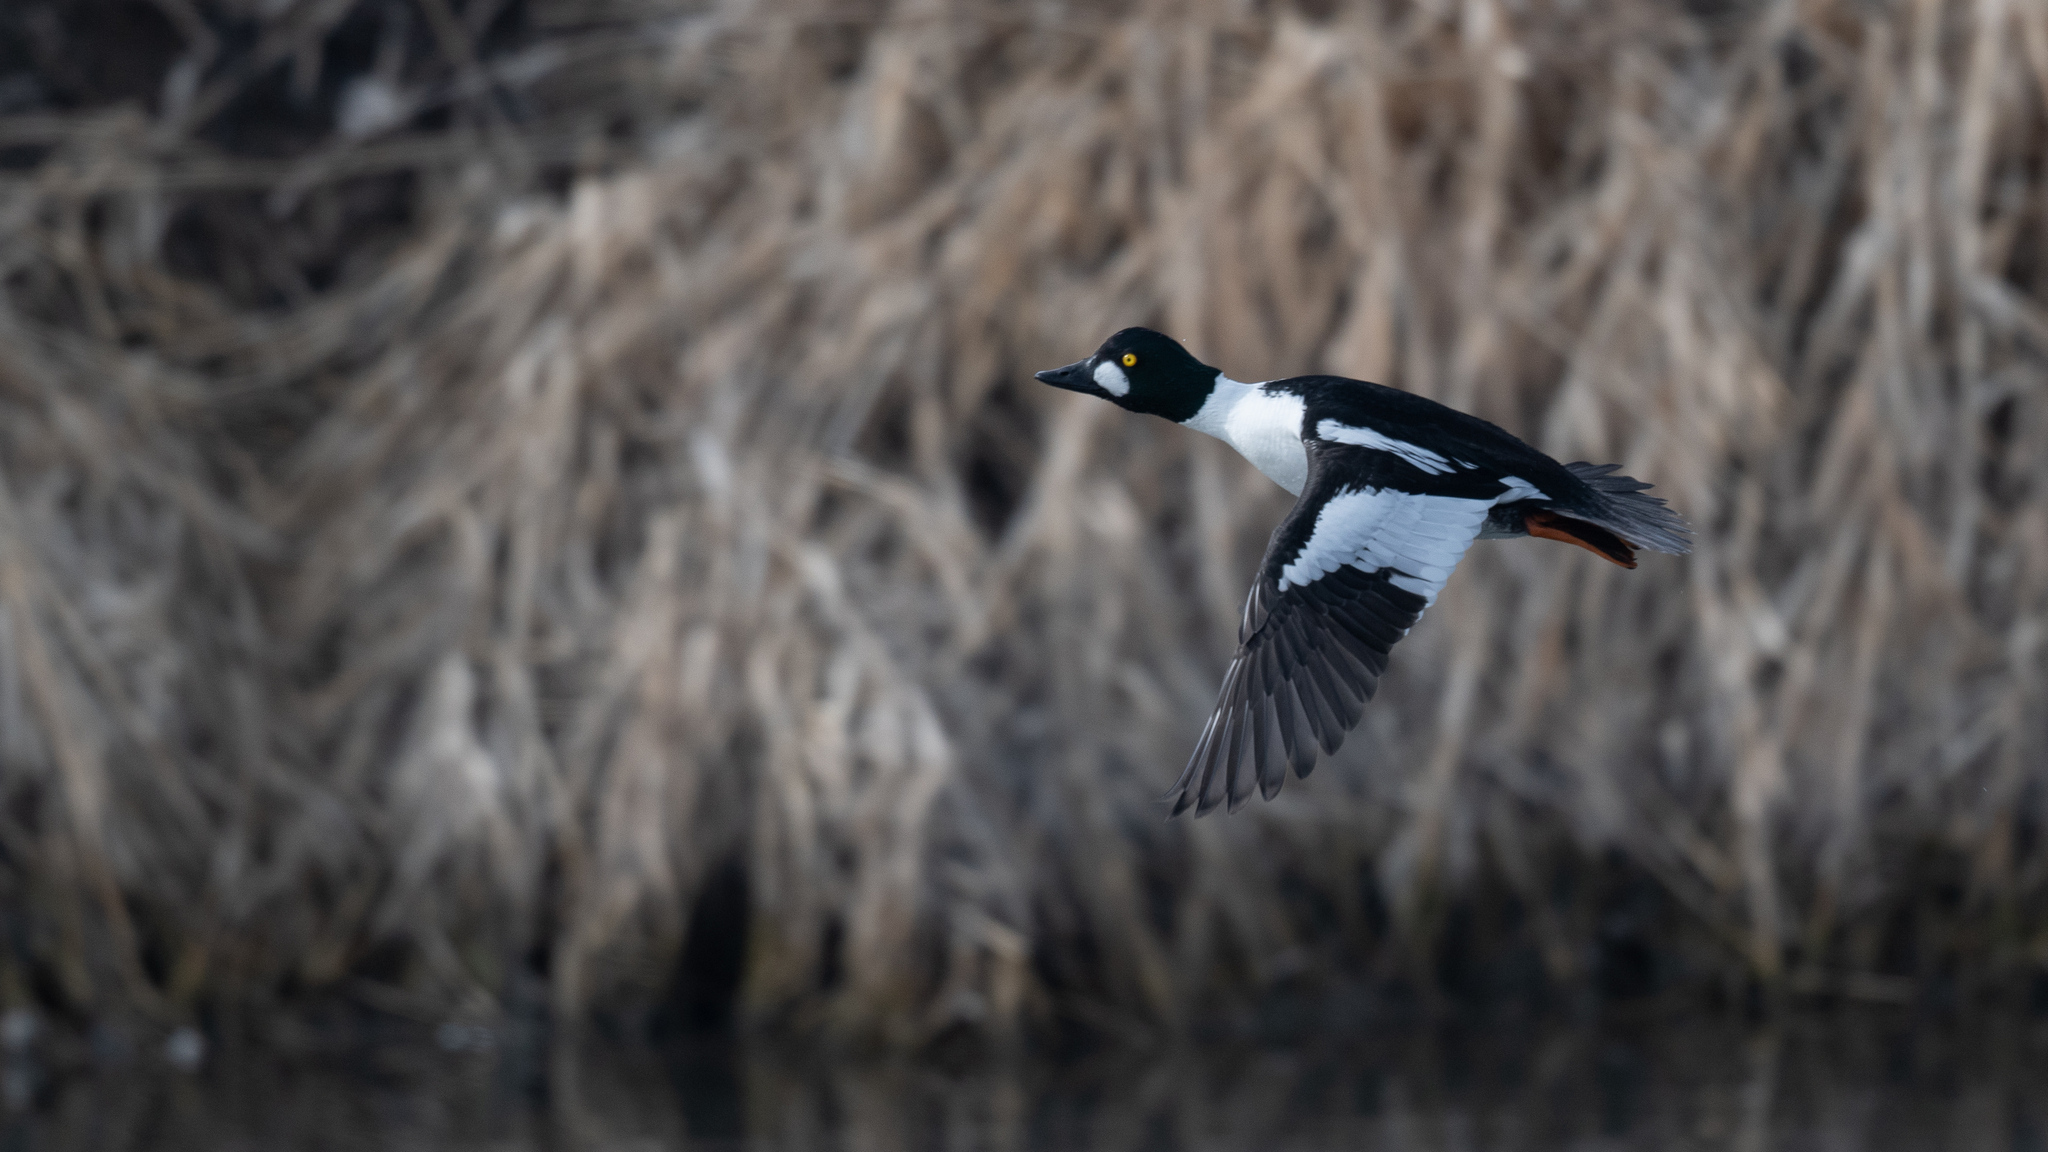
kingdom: Animalia
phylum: Chordata
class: Aves
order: Anseriformes
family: Anatidae
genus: Bucephala
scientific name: Bucephala clangula
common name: Common goldeneye
